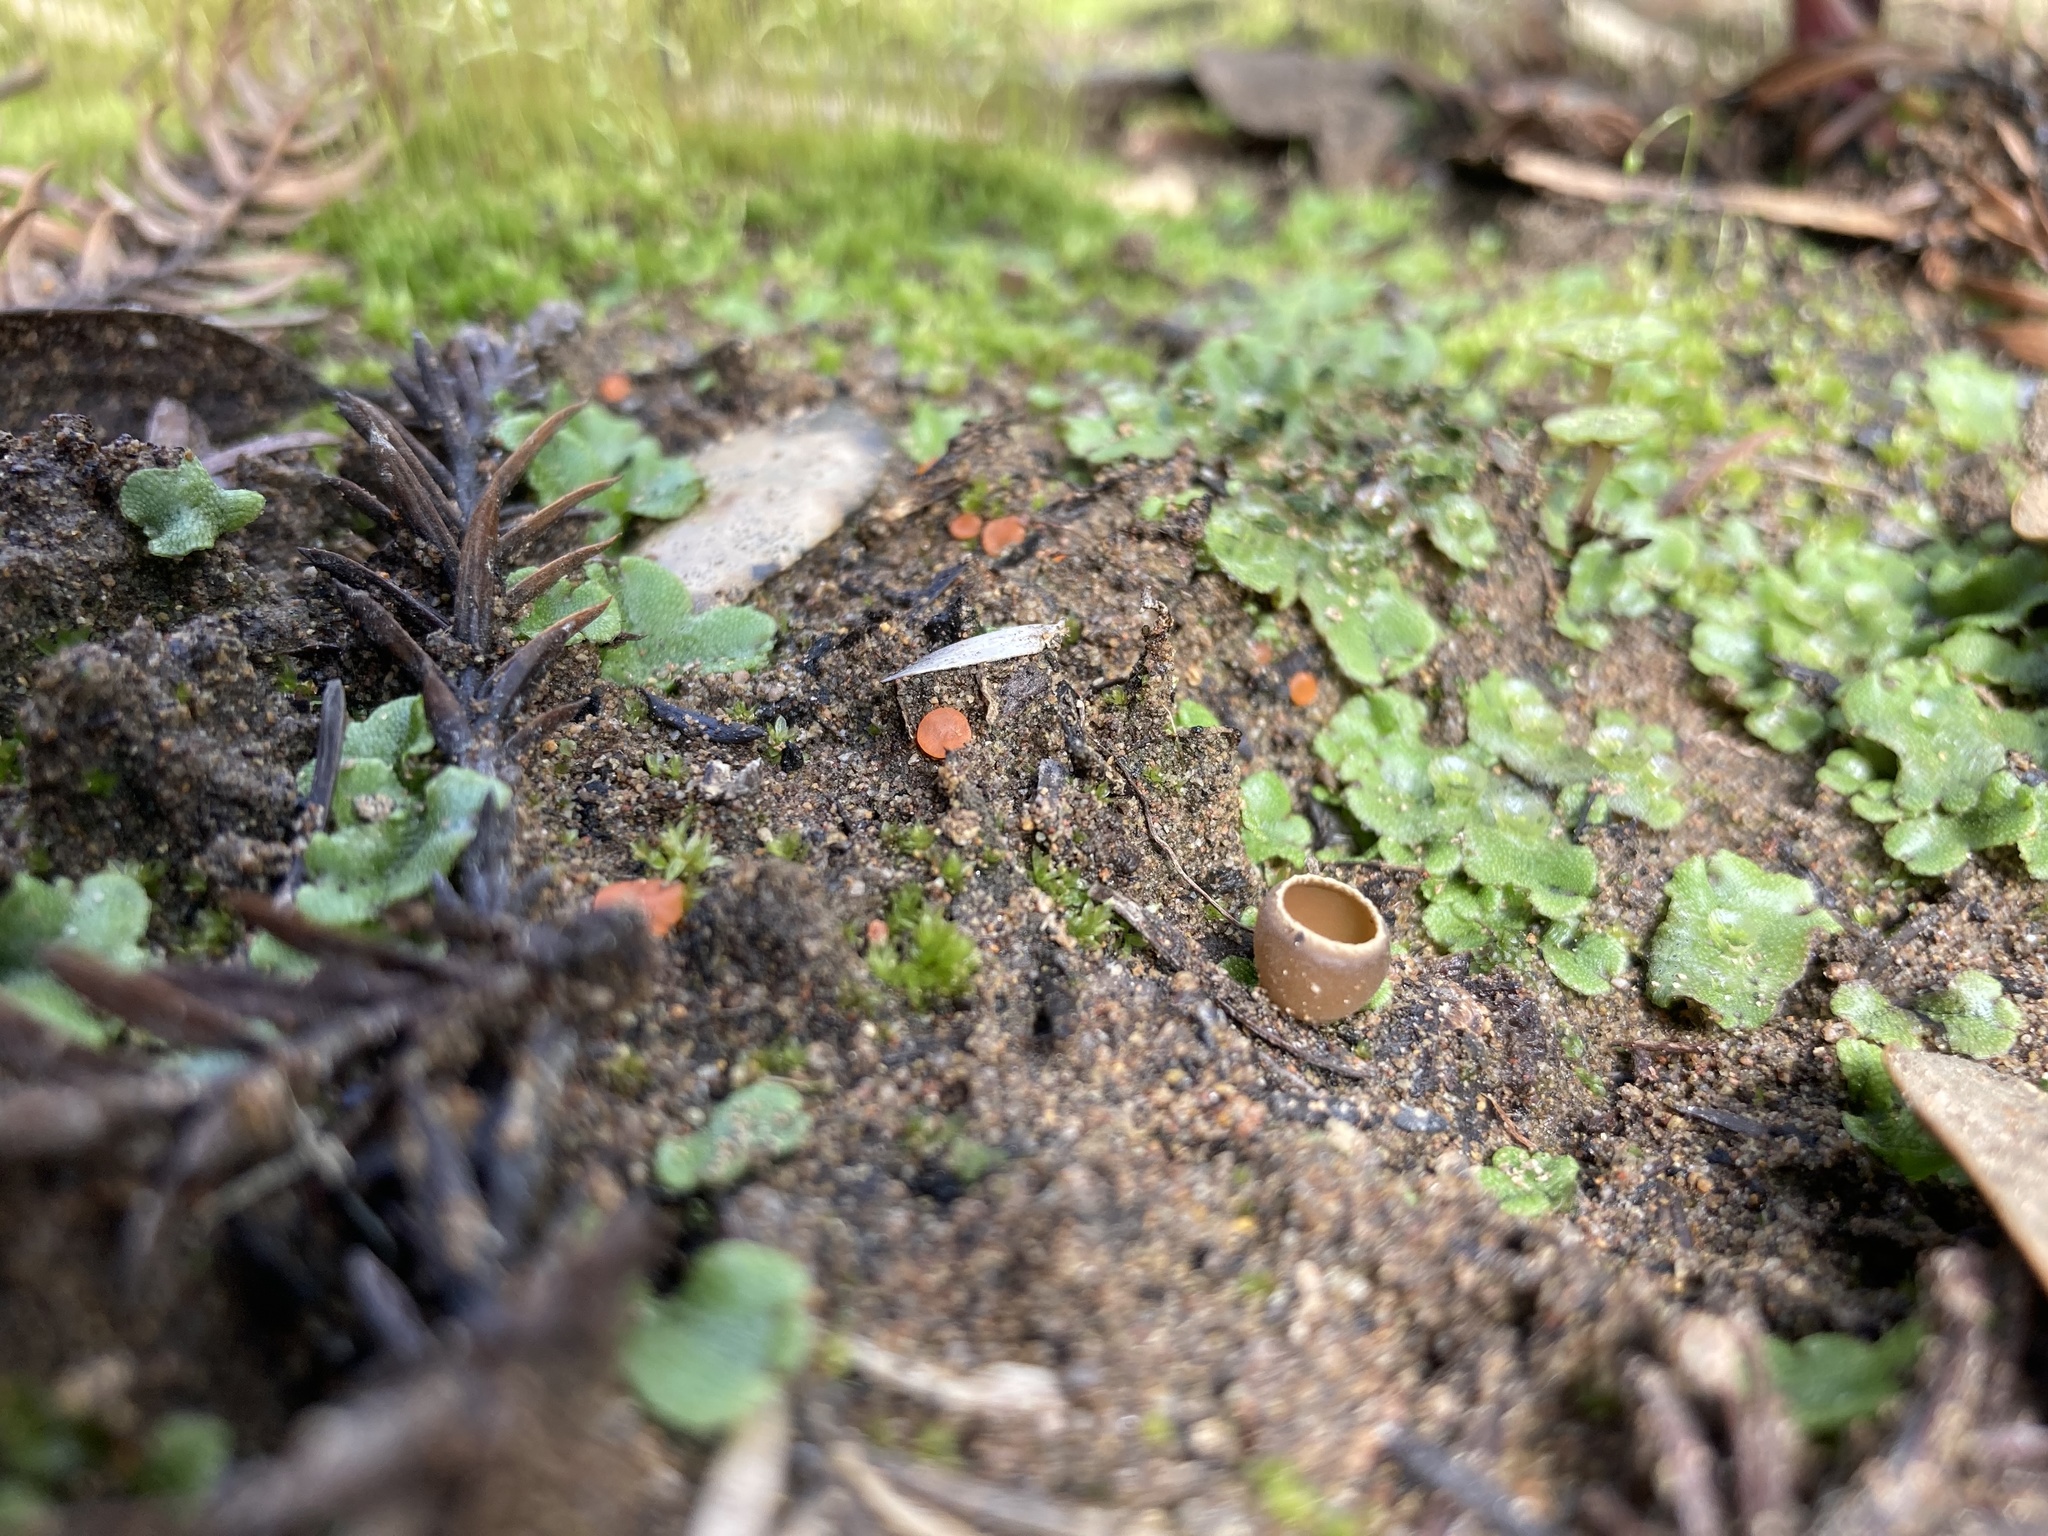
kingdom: Fungi
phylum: Ascomycota
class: Pezizomycetes
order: Pezizales
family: Pulvinulaceae
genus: Pulvinula
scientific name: Pulvinula archeri
